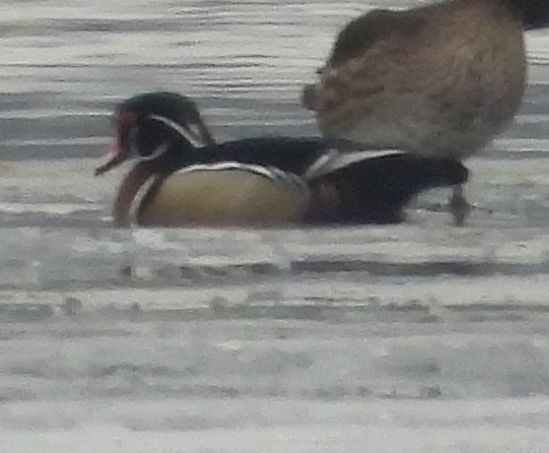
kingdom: Animalia
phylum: Chordata
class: Aves
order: Anseriformes
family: Anatidae
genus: Aix
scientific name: Aix sponsa
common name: Wood duck
